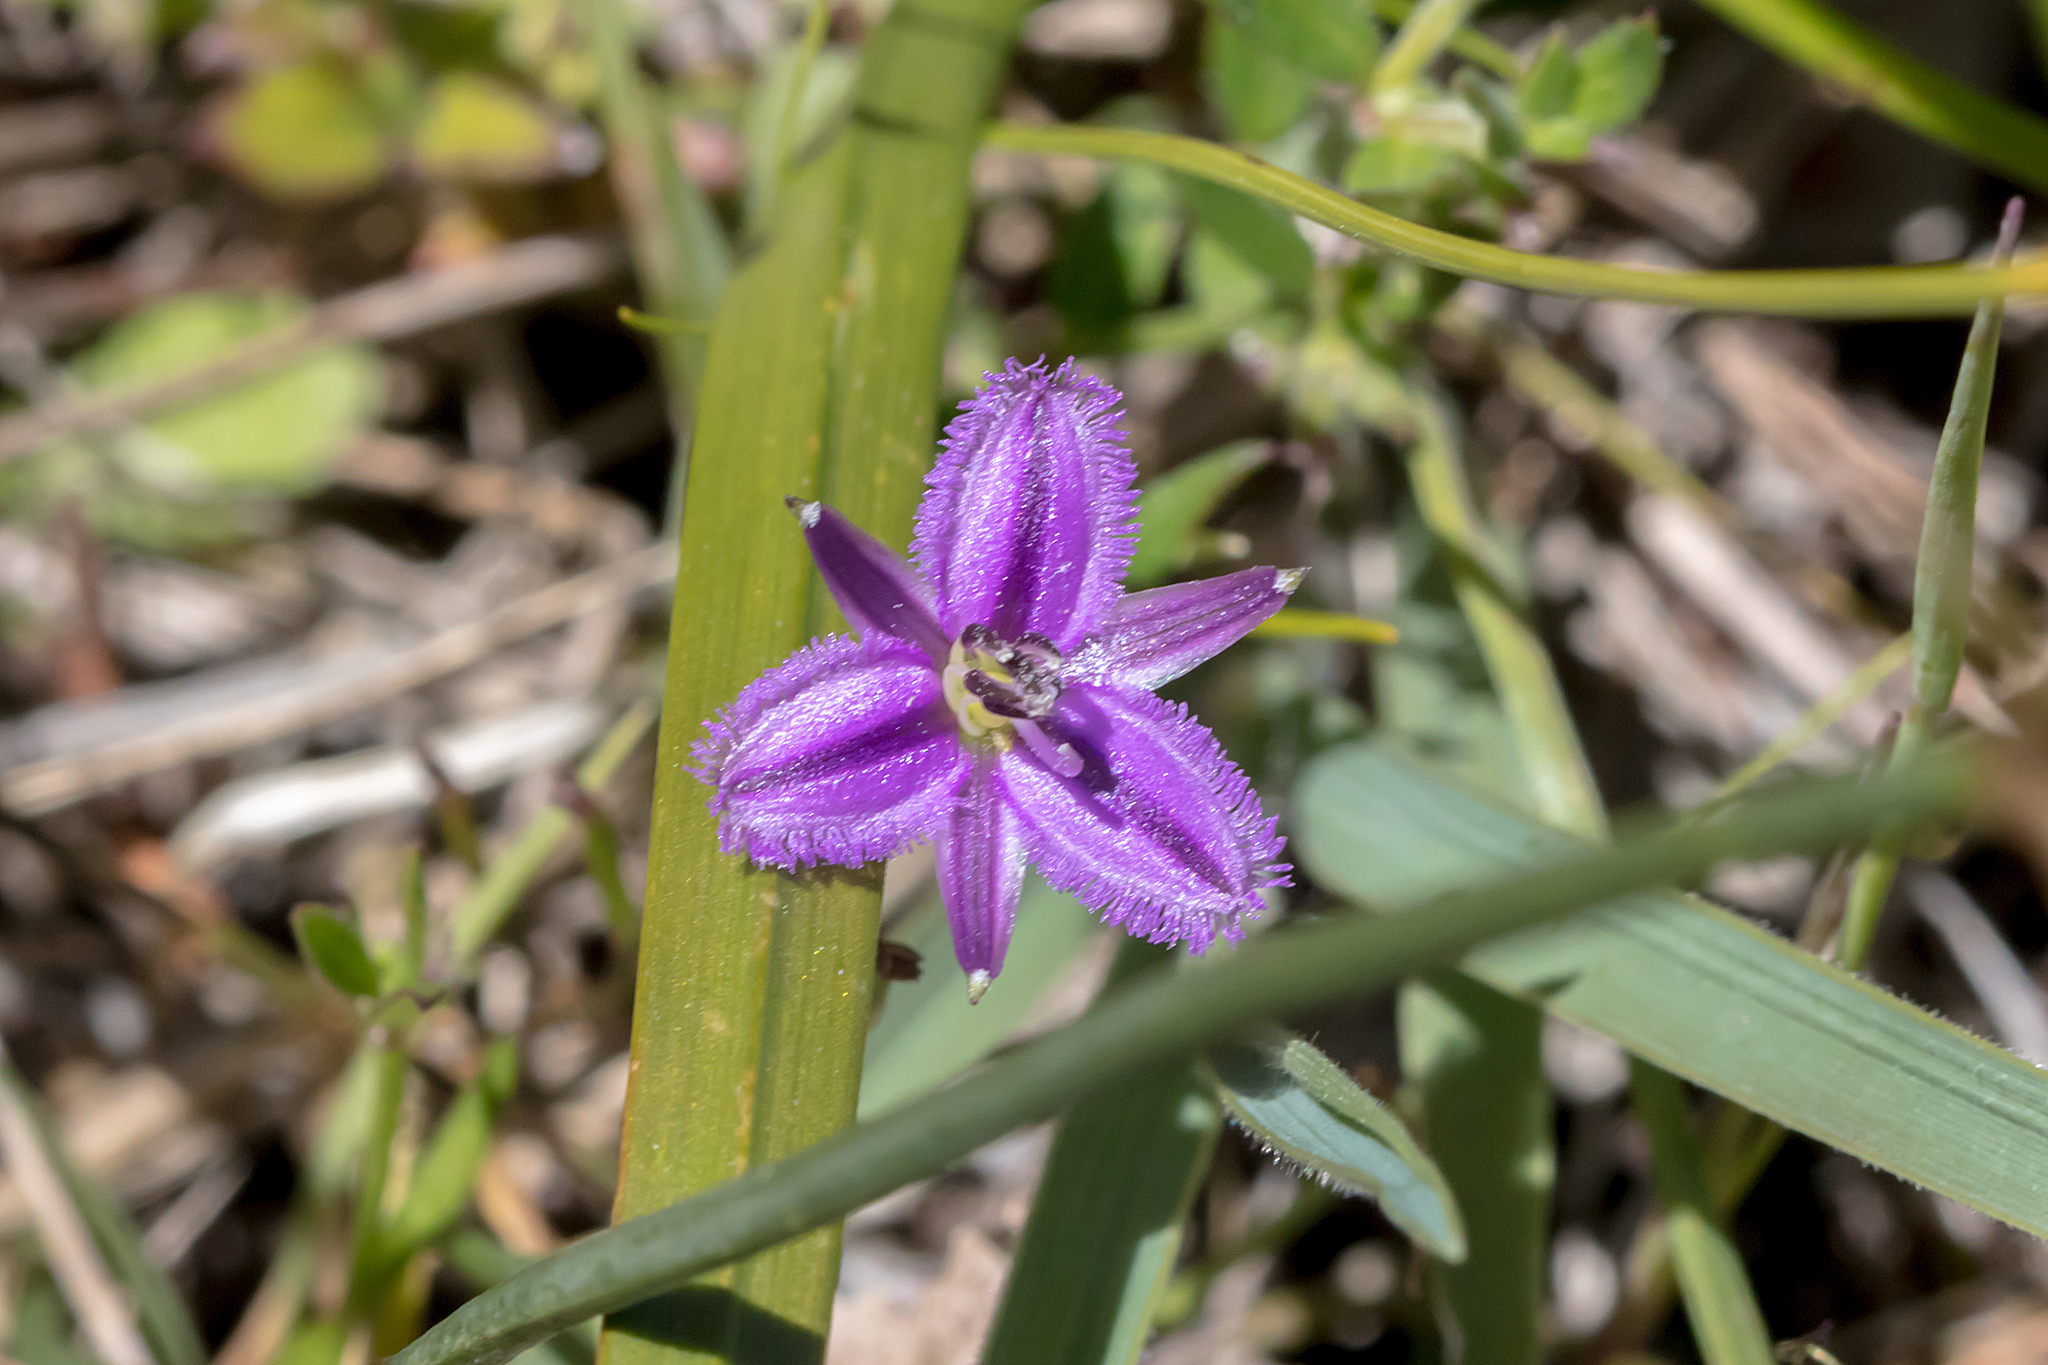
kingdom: Plantae
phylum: Tracheophyta
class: Liliopsida
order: Asparagales
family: Asparagaceae
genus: Thysanotus
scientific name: Thysanotus patersonii
